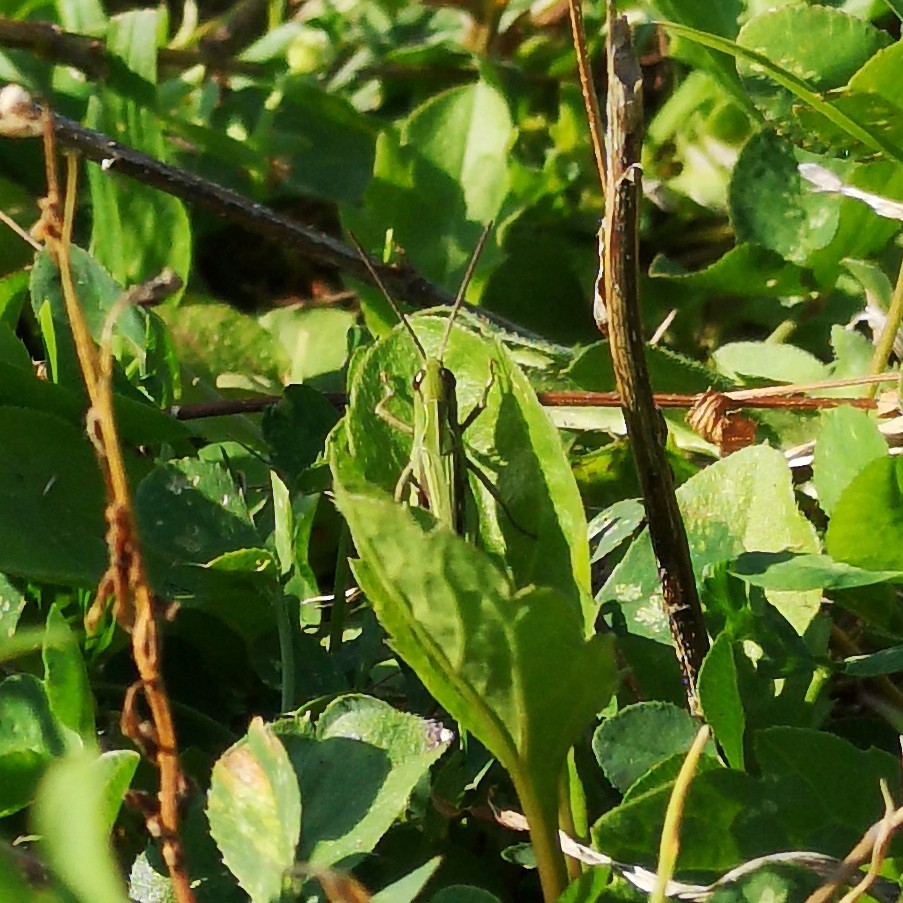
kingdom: Animalia
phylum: Arthropoda
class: Insecta
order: Orthoptera
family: Acrididae
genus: Chorthippus
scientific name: Chorthippus dorsatus
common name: Steppe grasshopper
